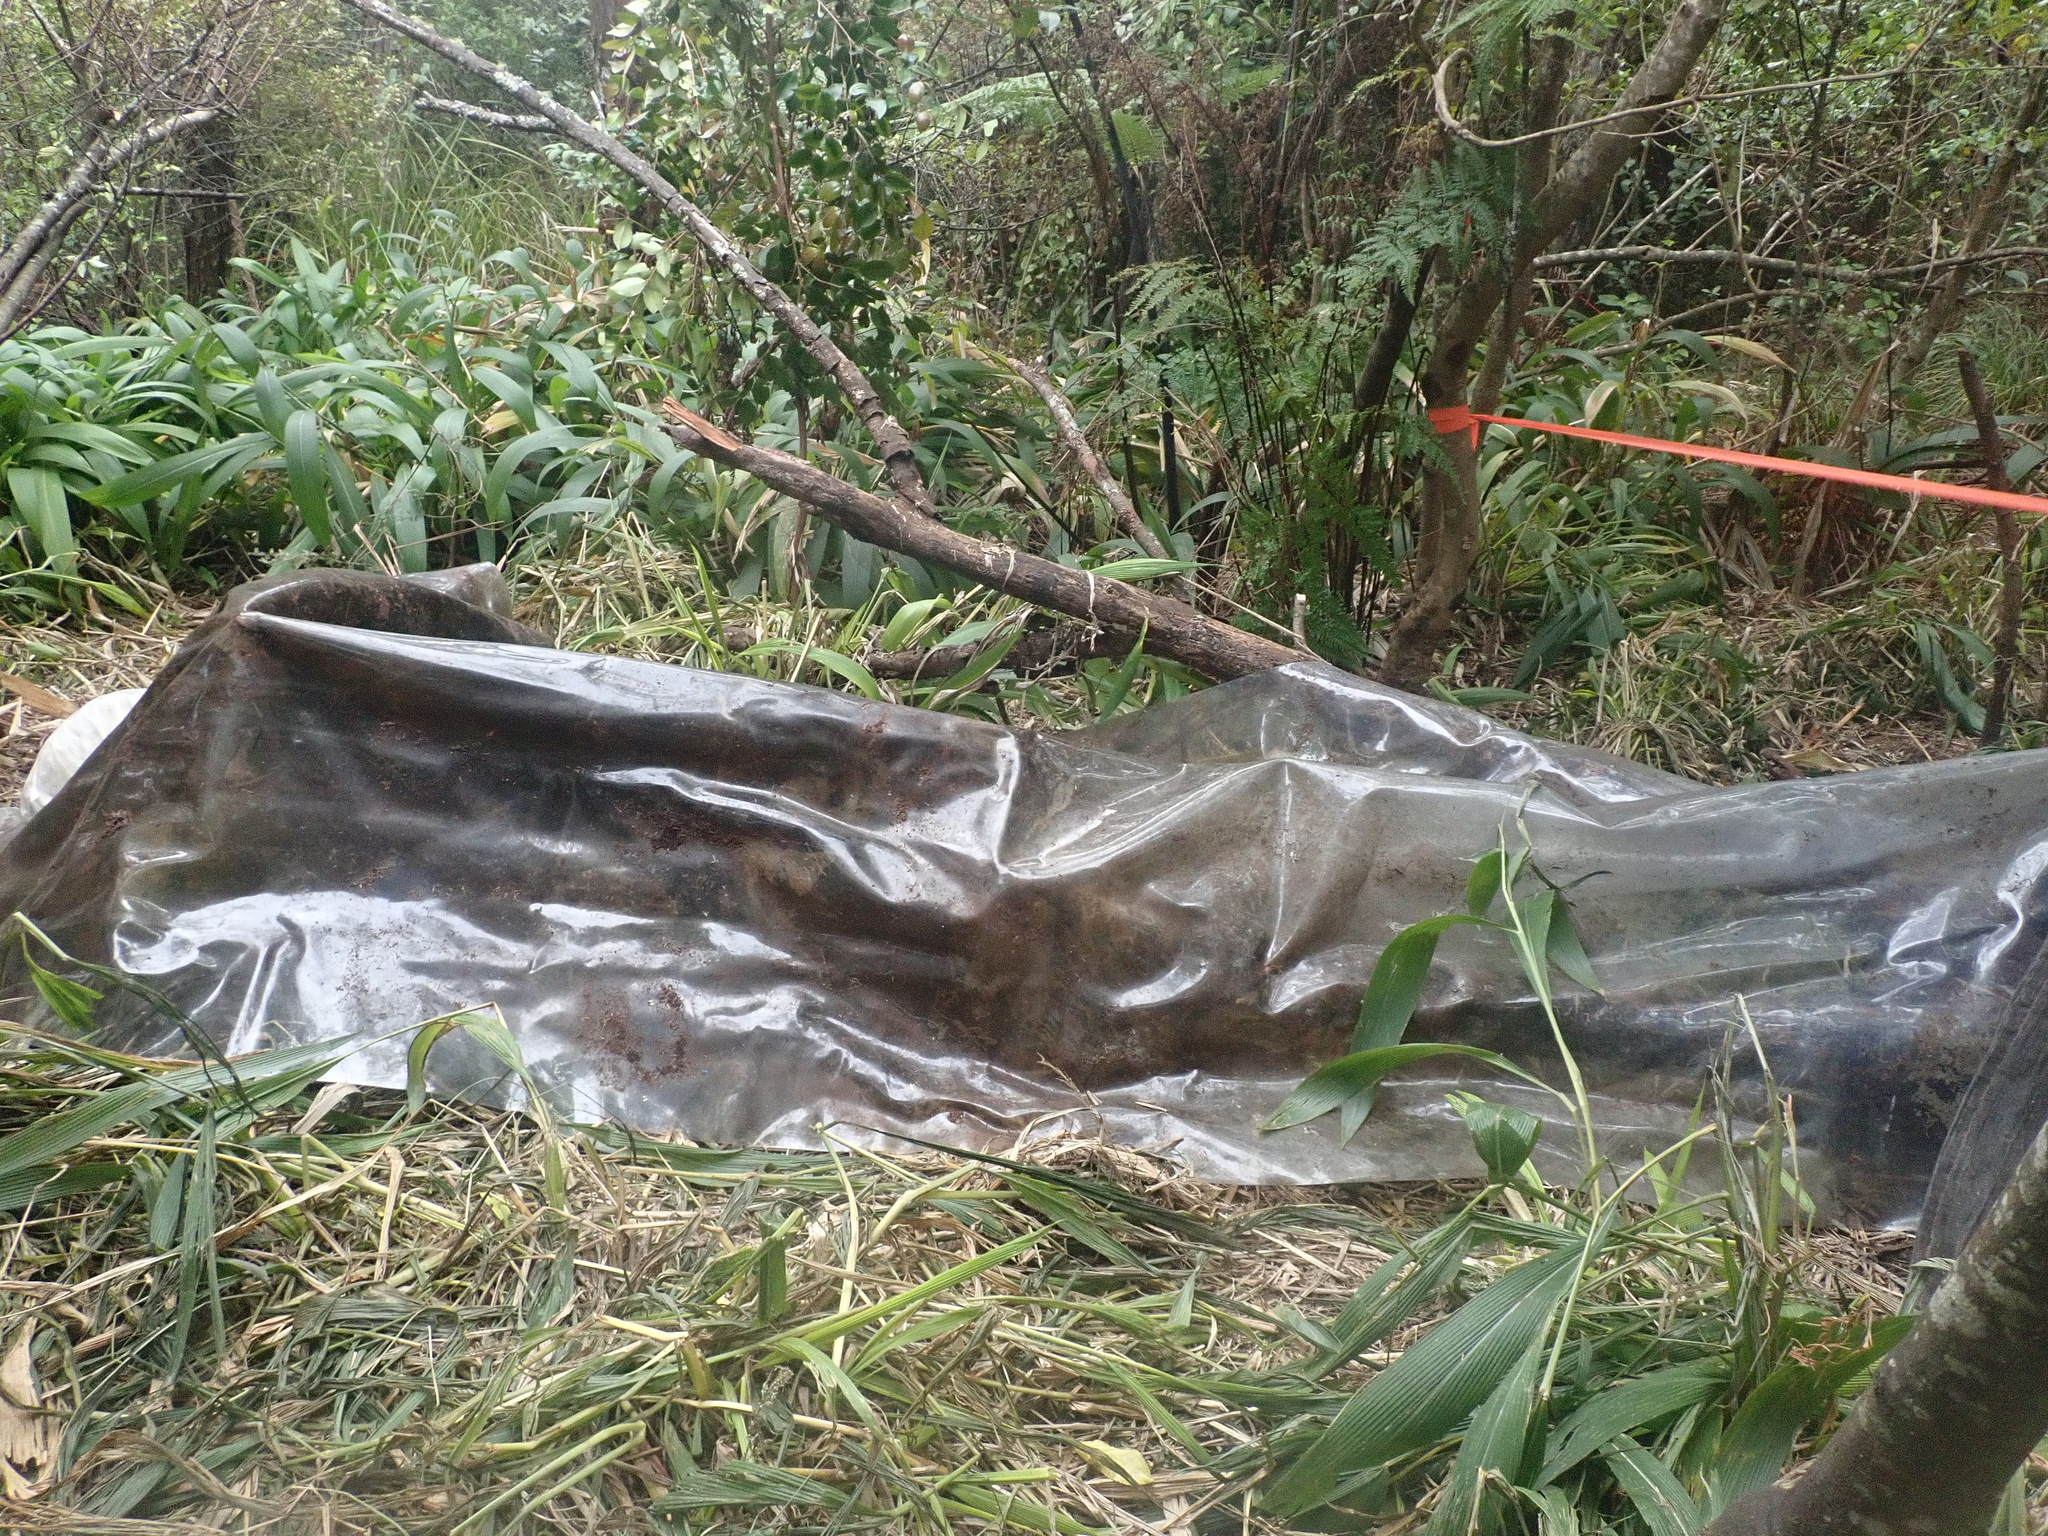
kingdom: Plantae
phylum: Tracheophyta
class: Polypodiopsida
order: Polypodiales
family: Pteridaceae
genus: Pteris
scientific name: Pteris tremula
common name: Australian brake
